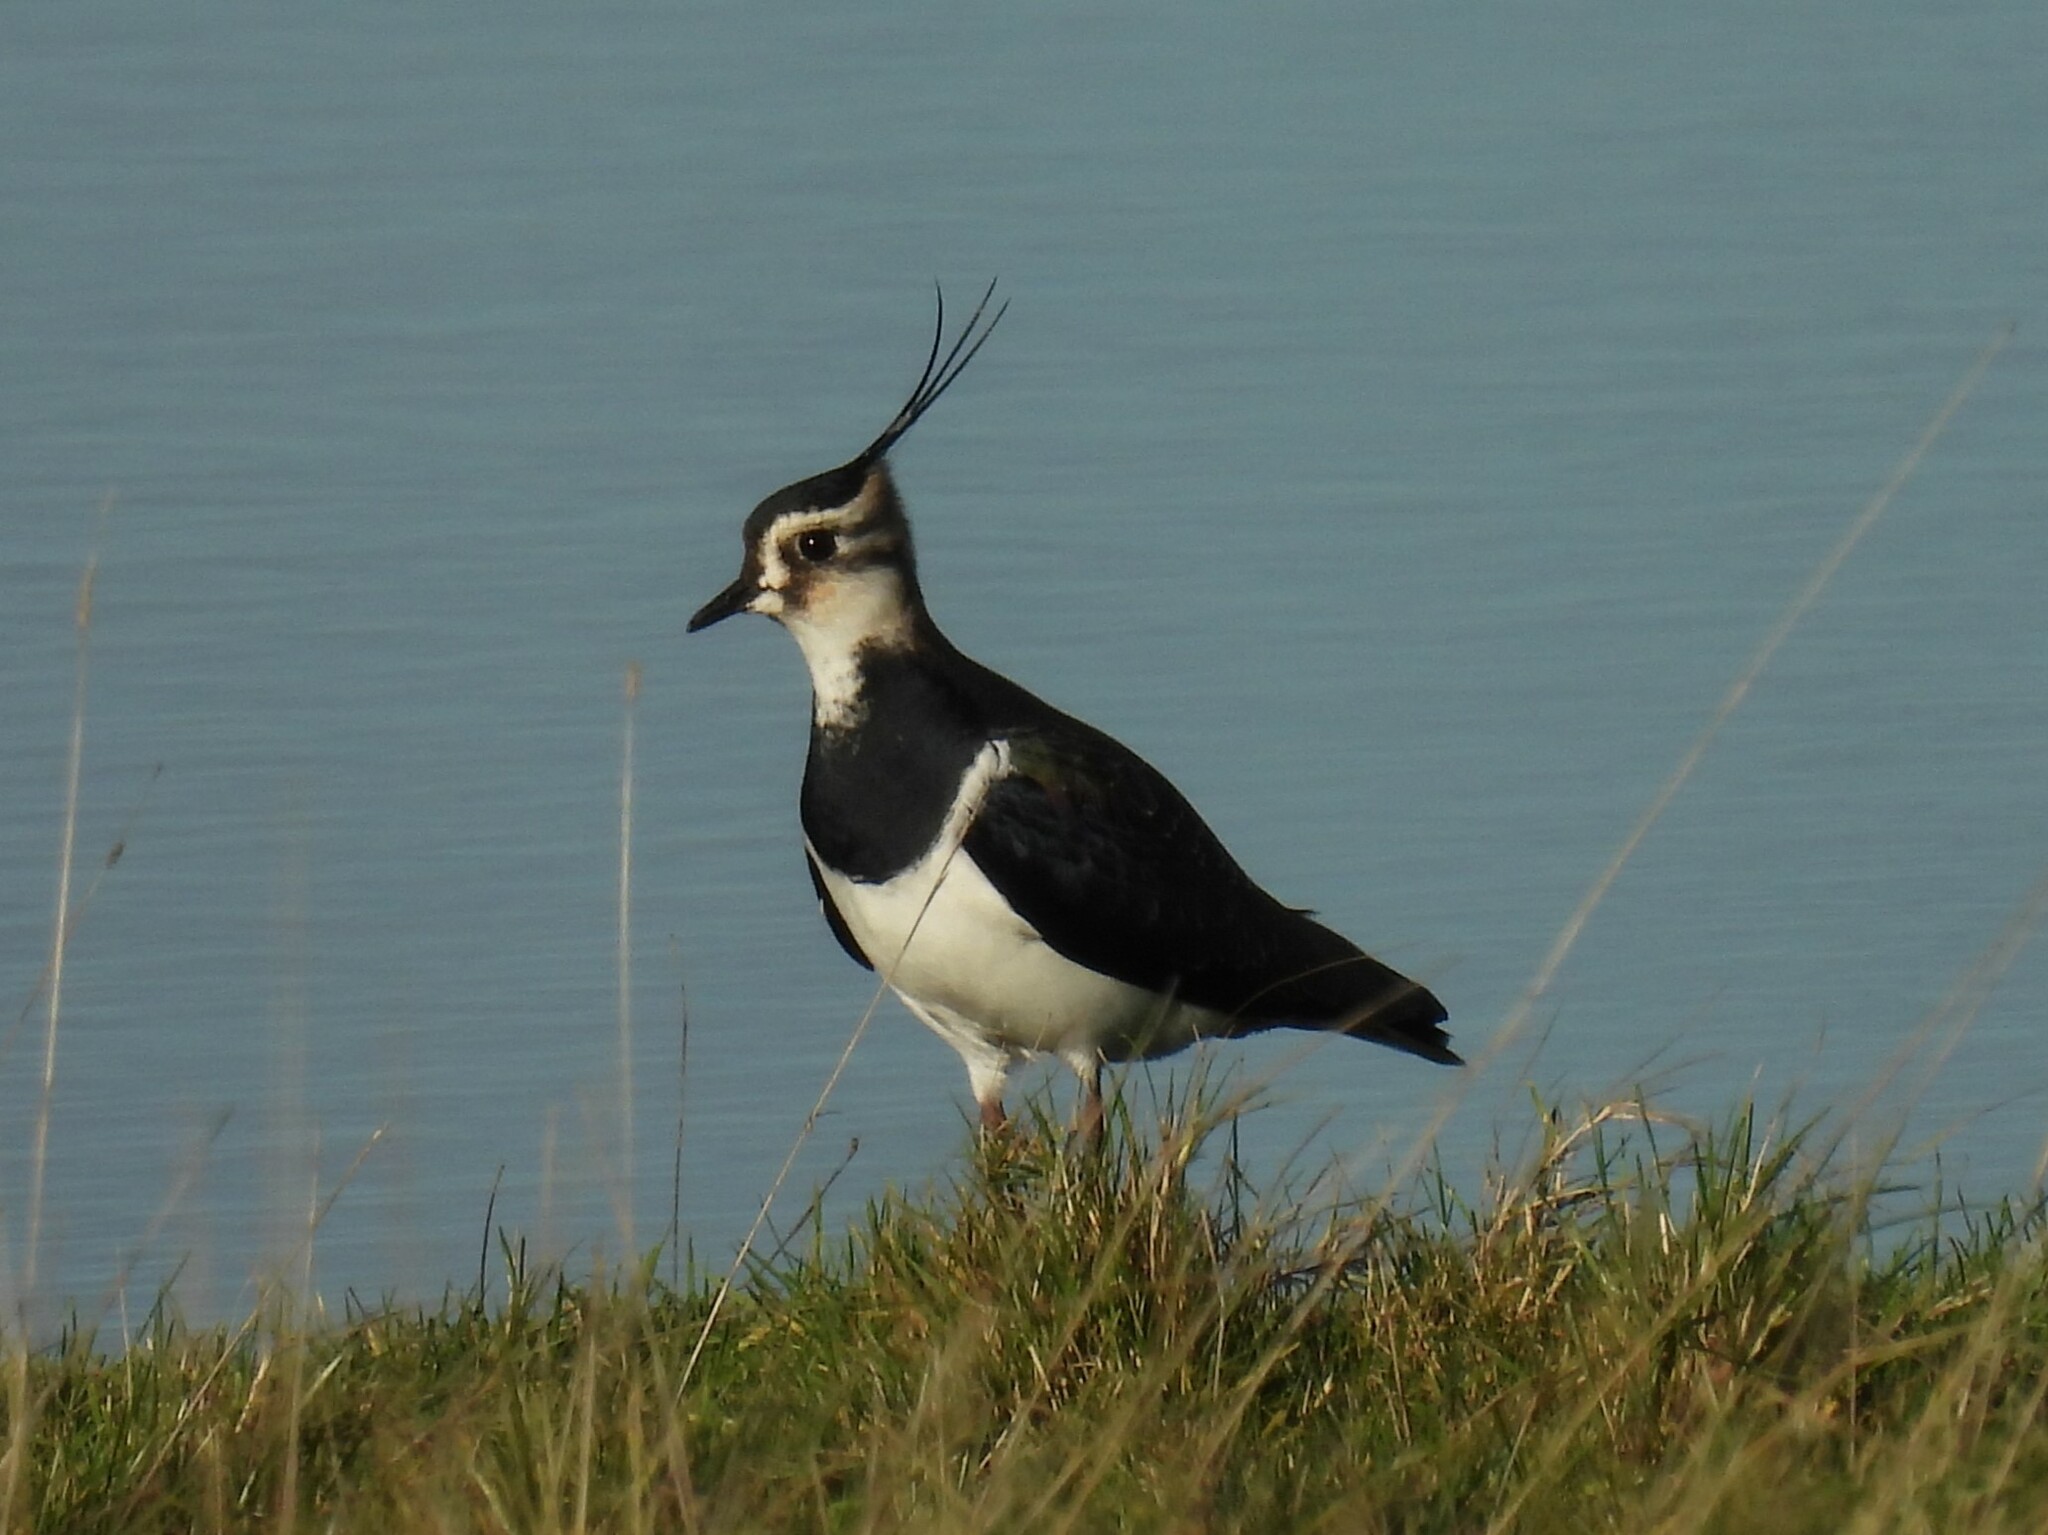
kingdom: Animalia
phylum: Chordata
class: Aves
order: Charadriiformes
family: Charadriidae
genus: Vanellus
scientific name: Vanellus vanellus
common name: Northern lapwing
